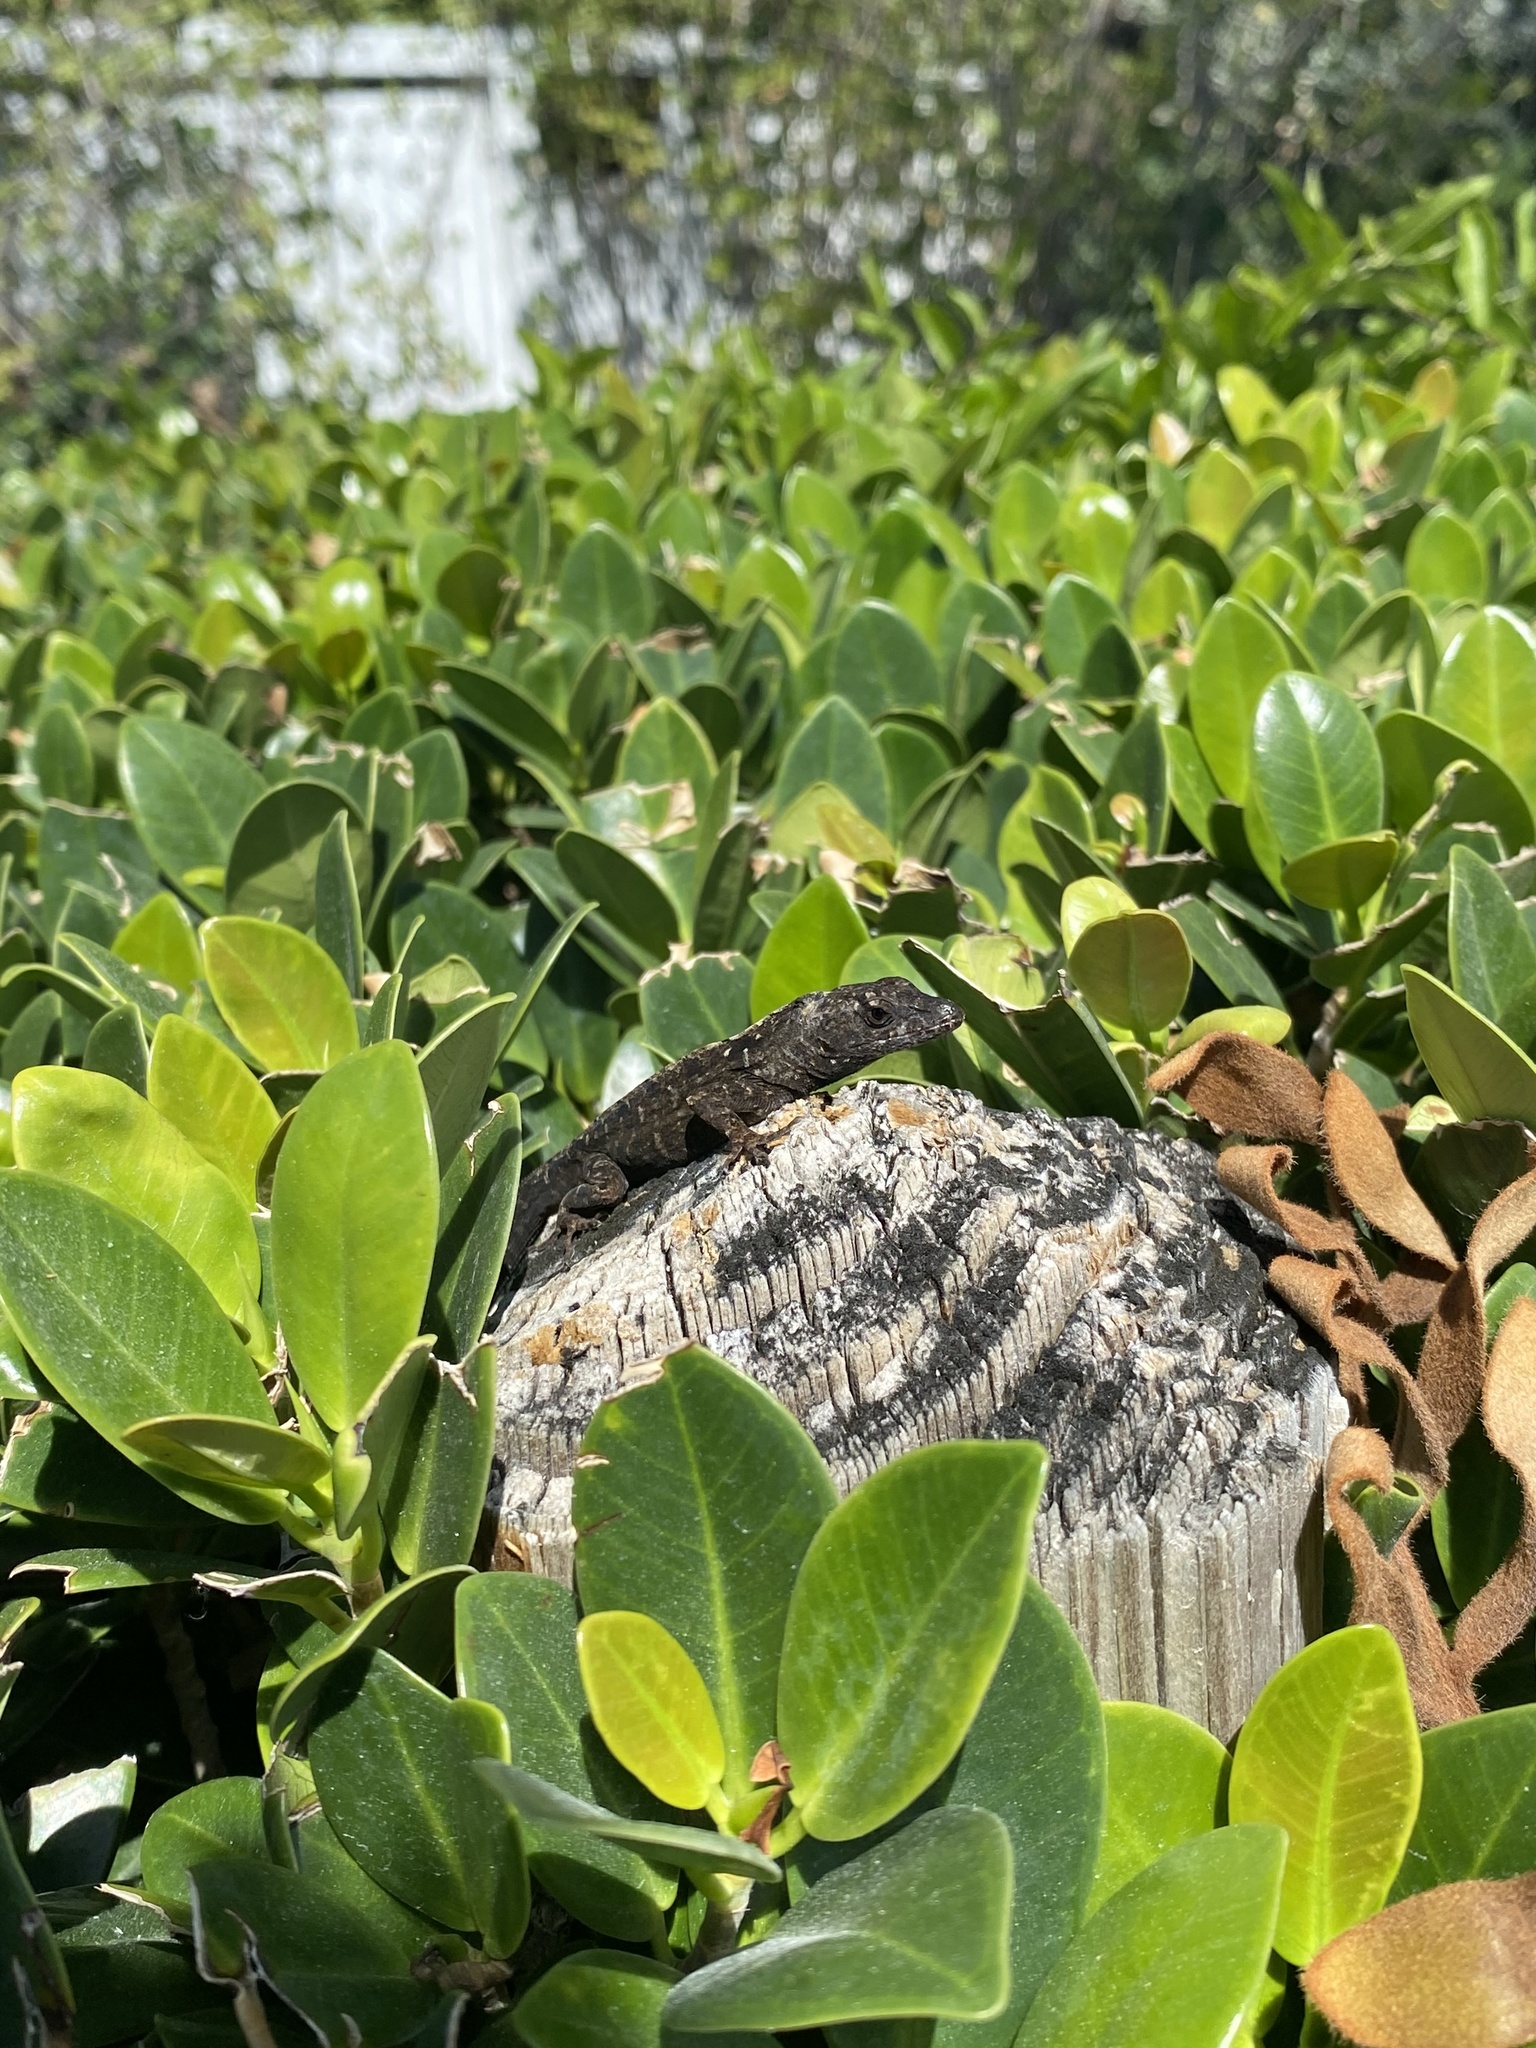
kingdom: Animalia
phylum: Chordata
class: Squamata
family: Dactyloidae
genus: Anolis
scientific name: Anolis sagrei
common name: Brown anole
